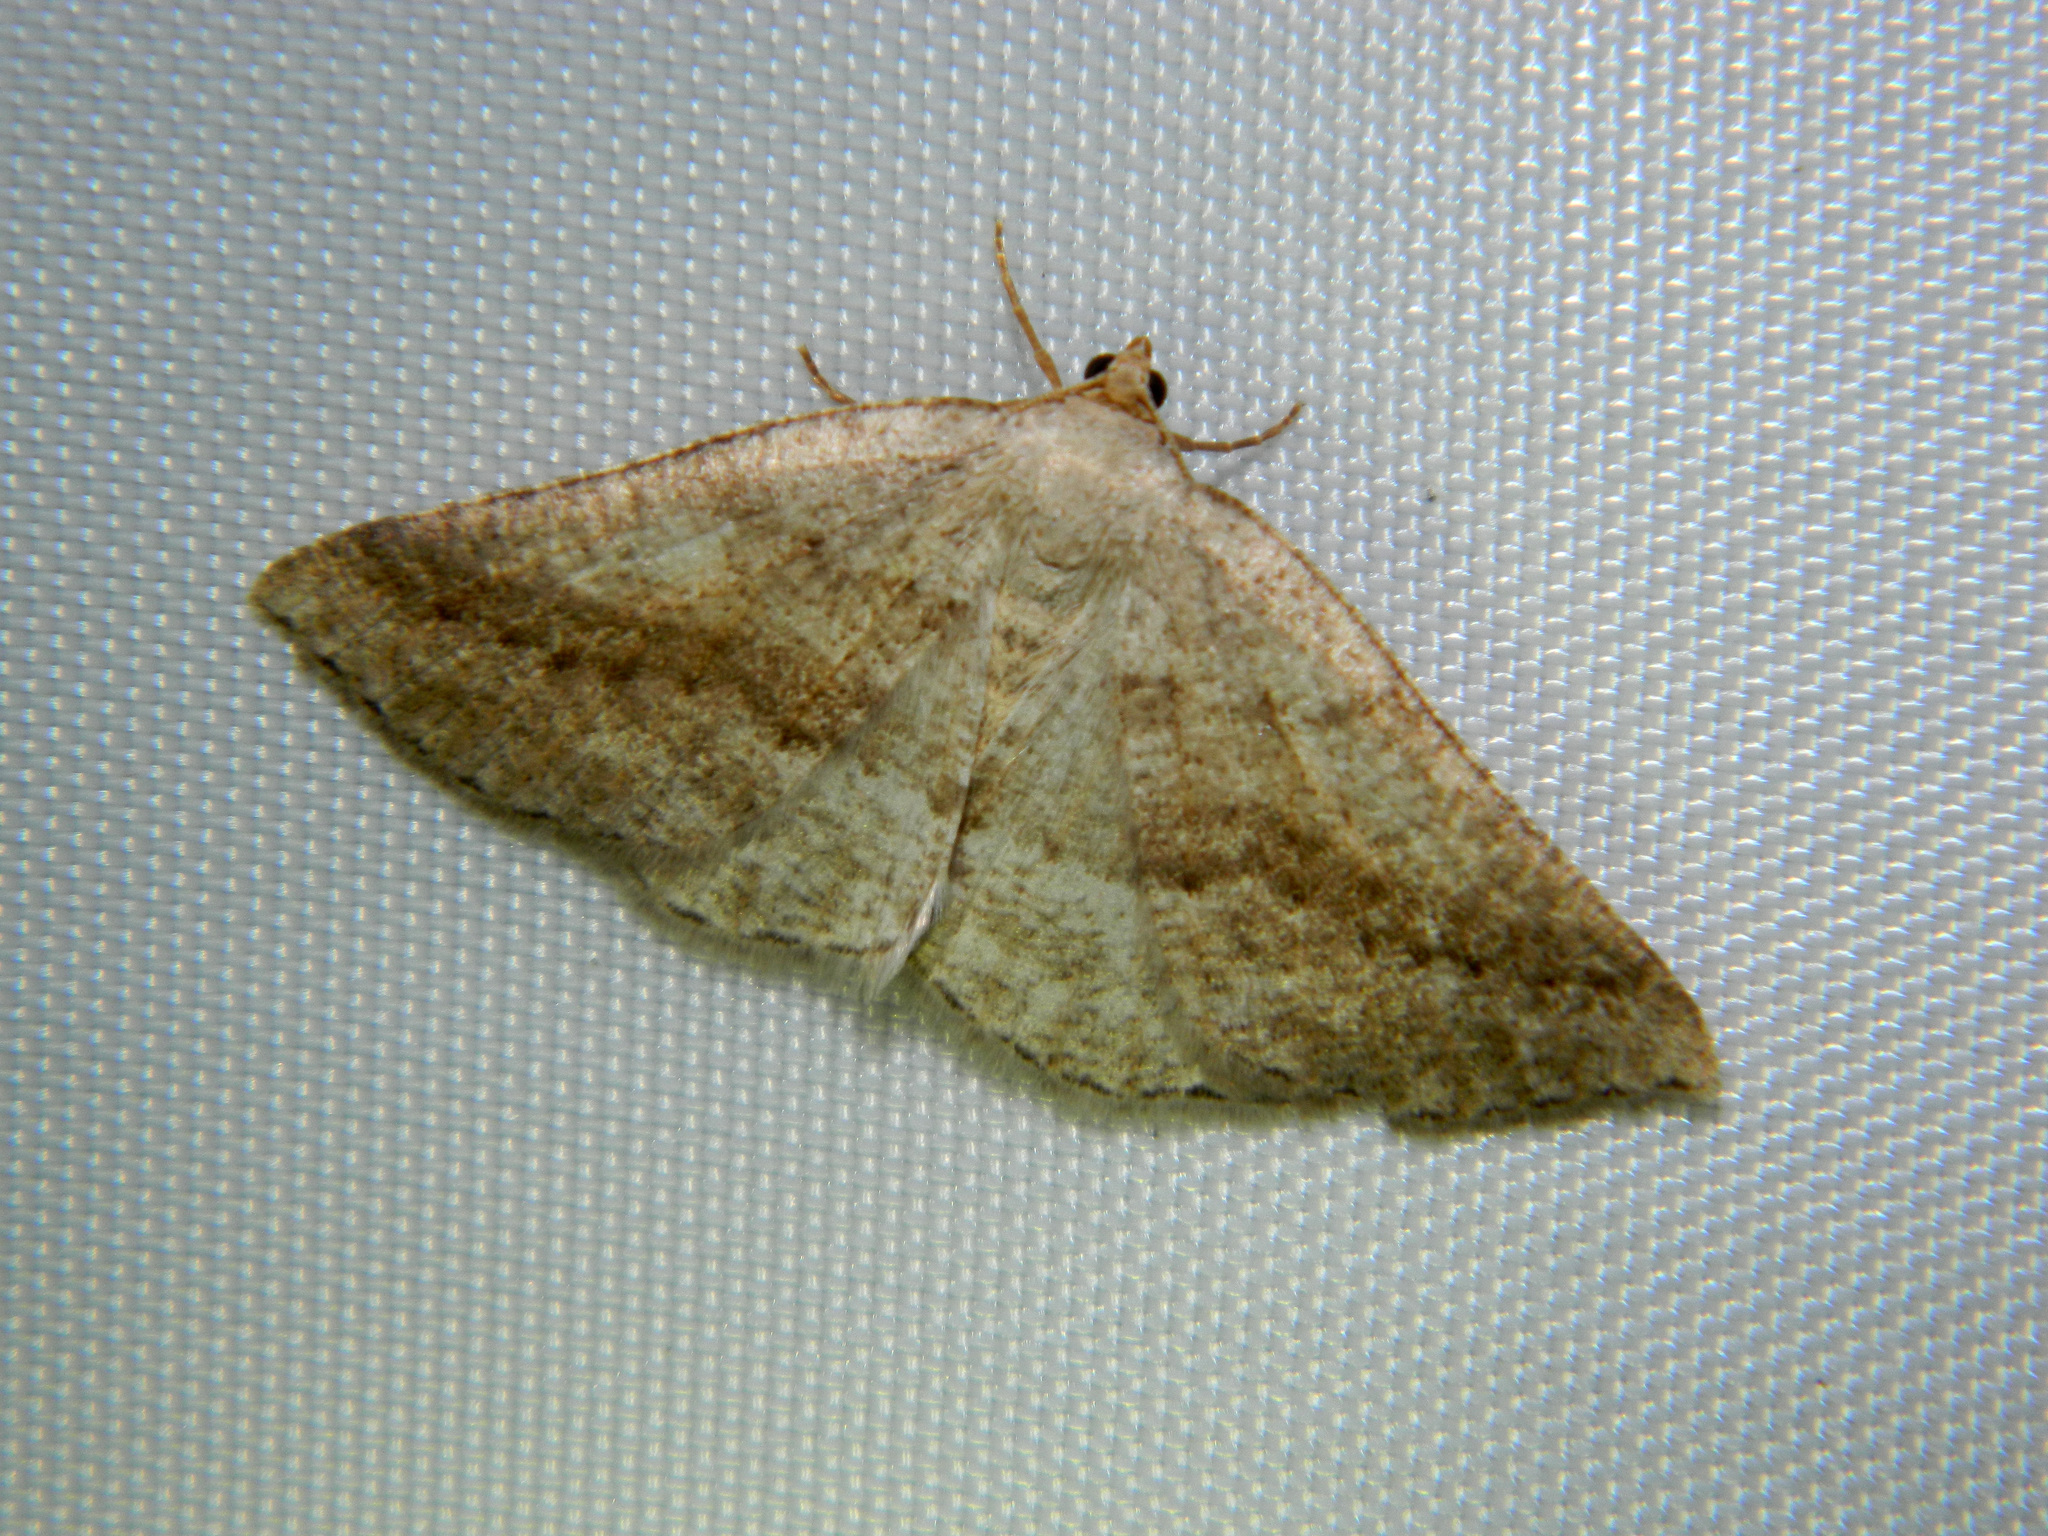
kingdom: Animalia
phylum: Arthropoda
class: Insecta
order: Lepidoptera
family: Geometridae
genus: Tacparia
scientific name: Tacparia detersata
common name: Pale alder moth
